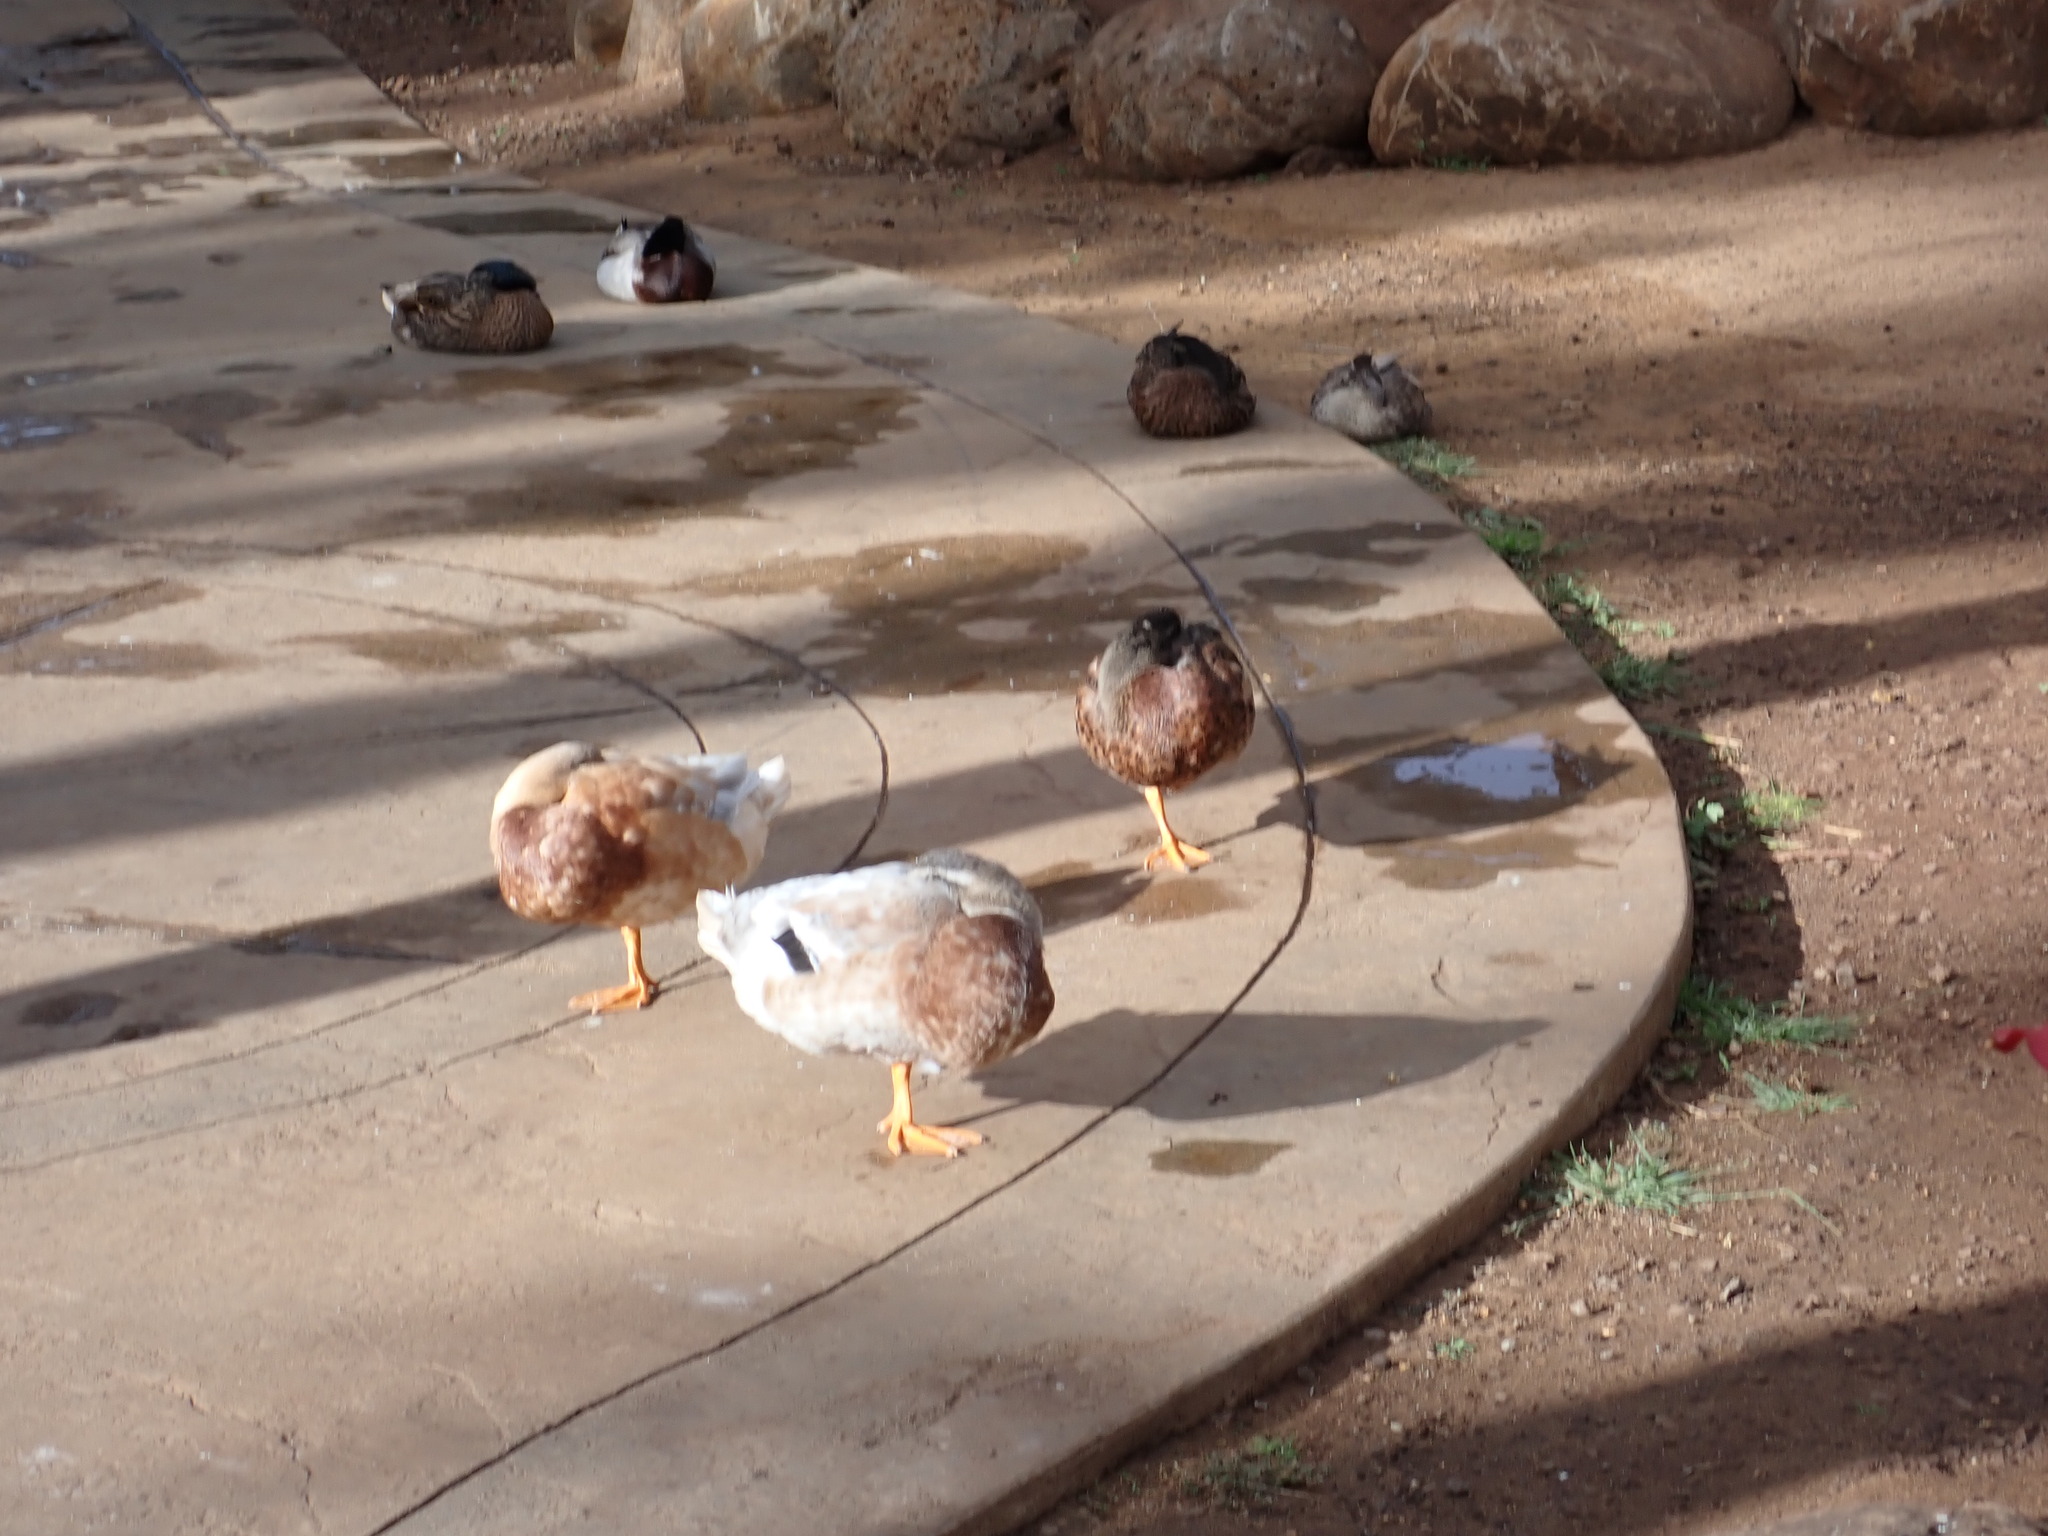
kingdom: Animalia
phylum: Chordata
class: Aves
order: Anseriformes
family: Anatidae
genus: Anas
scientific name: Anas platyrhynchos
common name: Mallard
